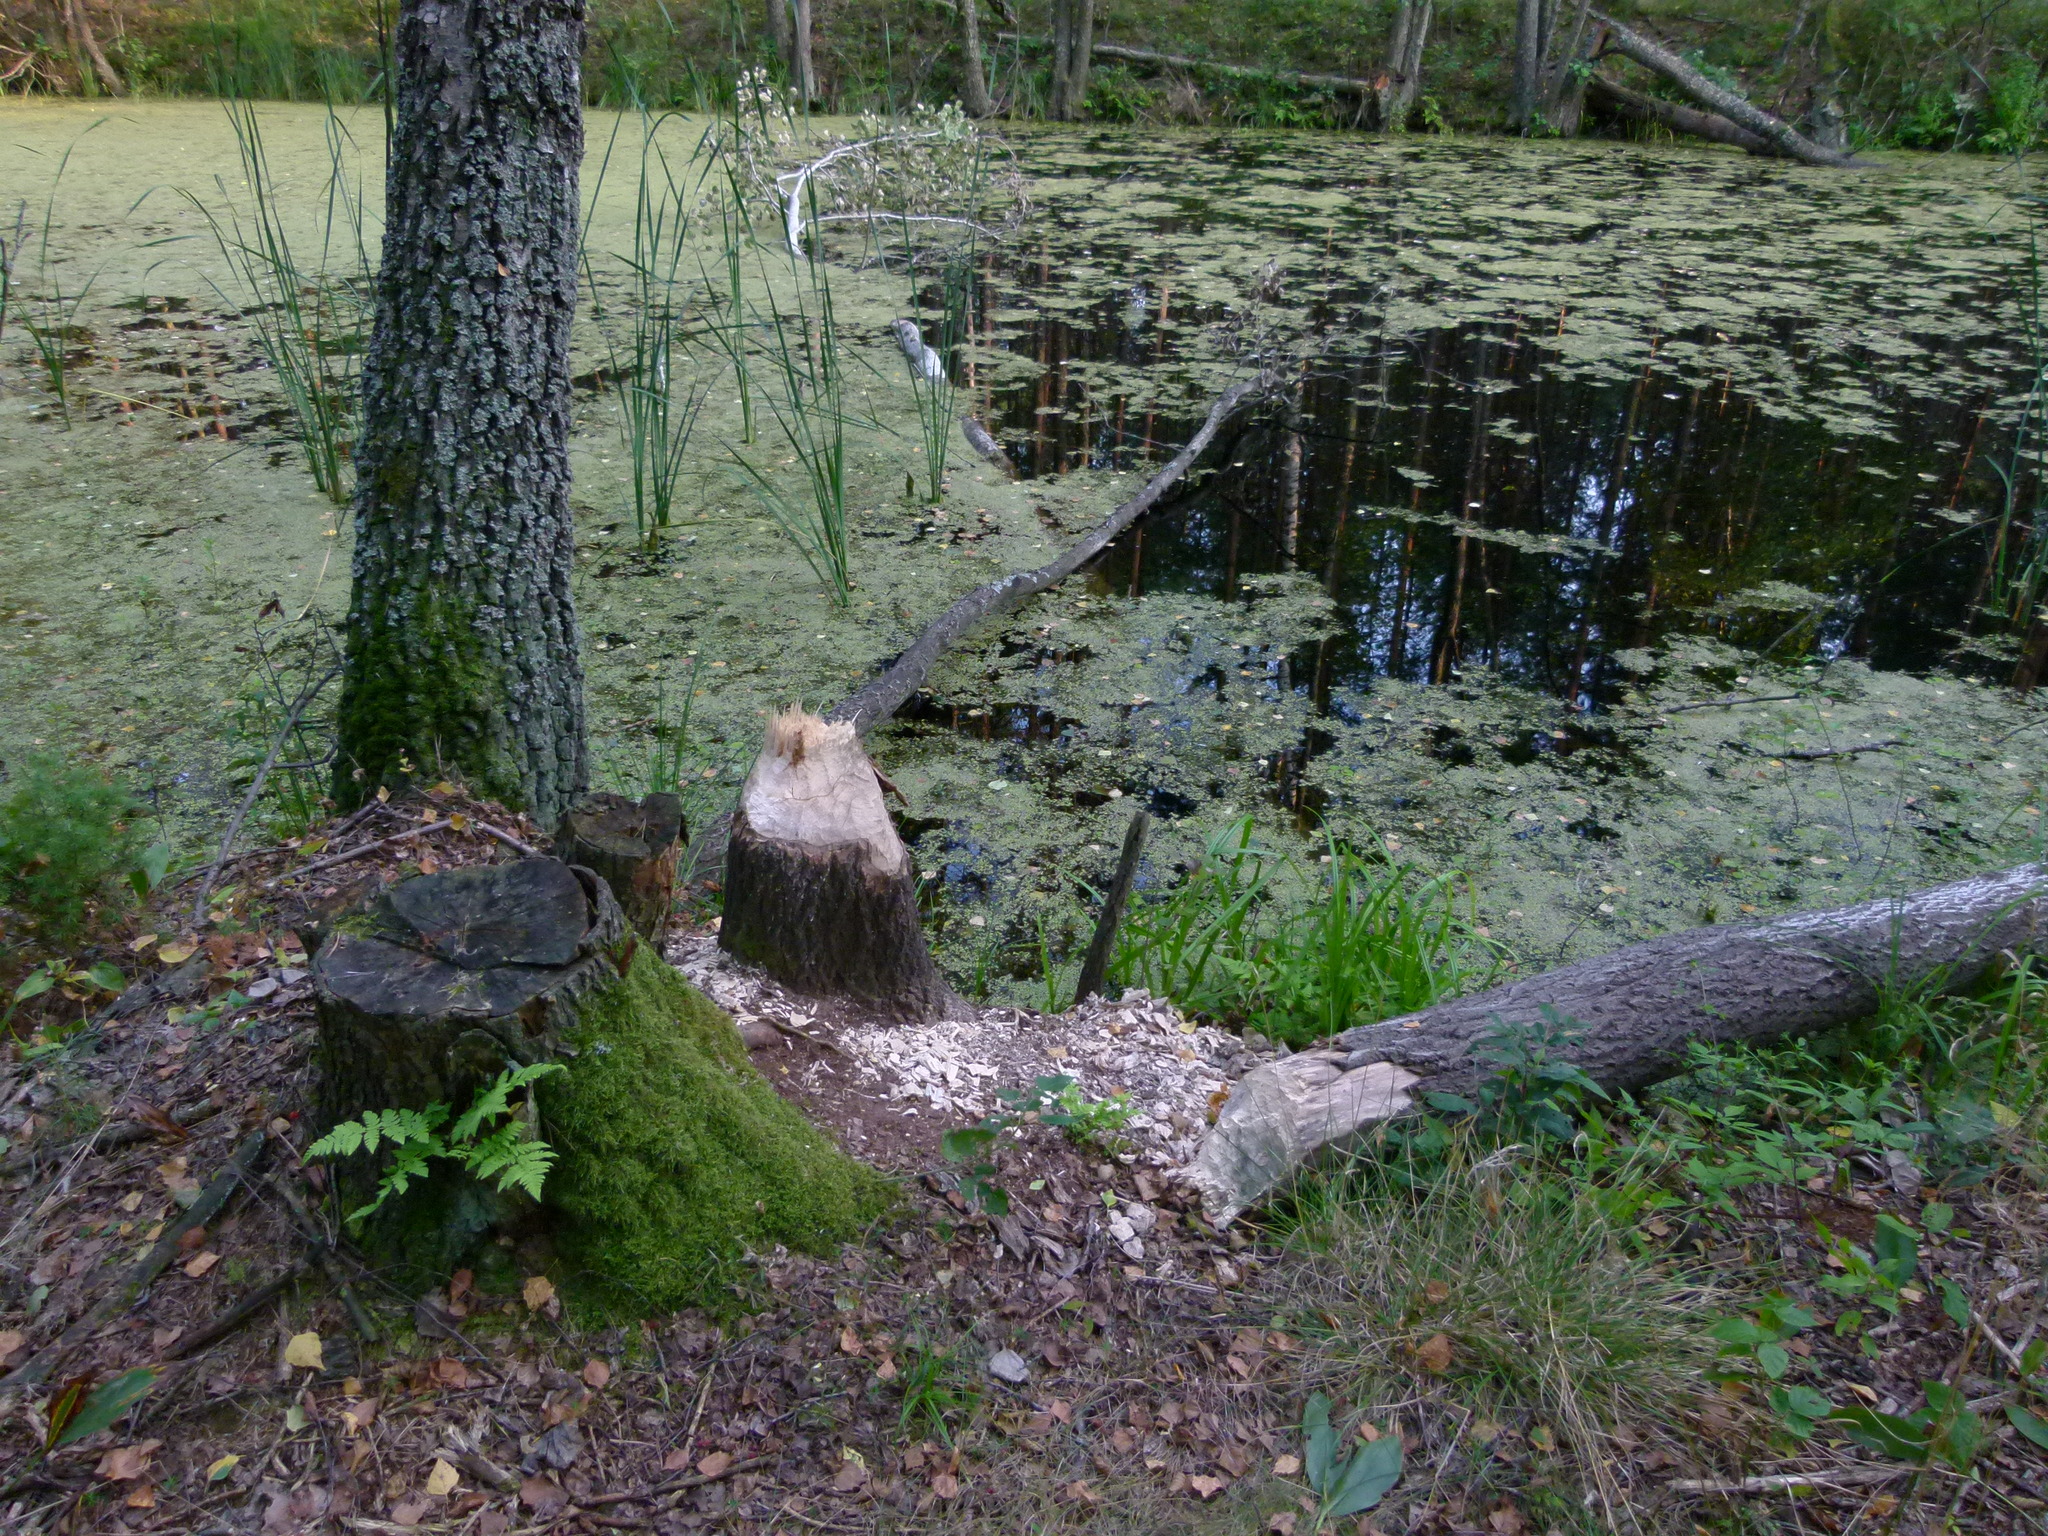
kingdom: Animalia
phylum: Chordata
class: Mammalia
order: Rodentia
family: Castoridae
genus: Castor
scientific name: Castor fiber
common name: Eurasian beaver
